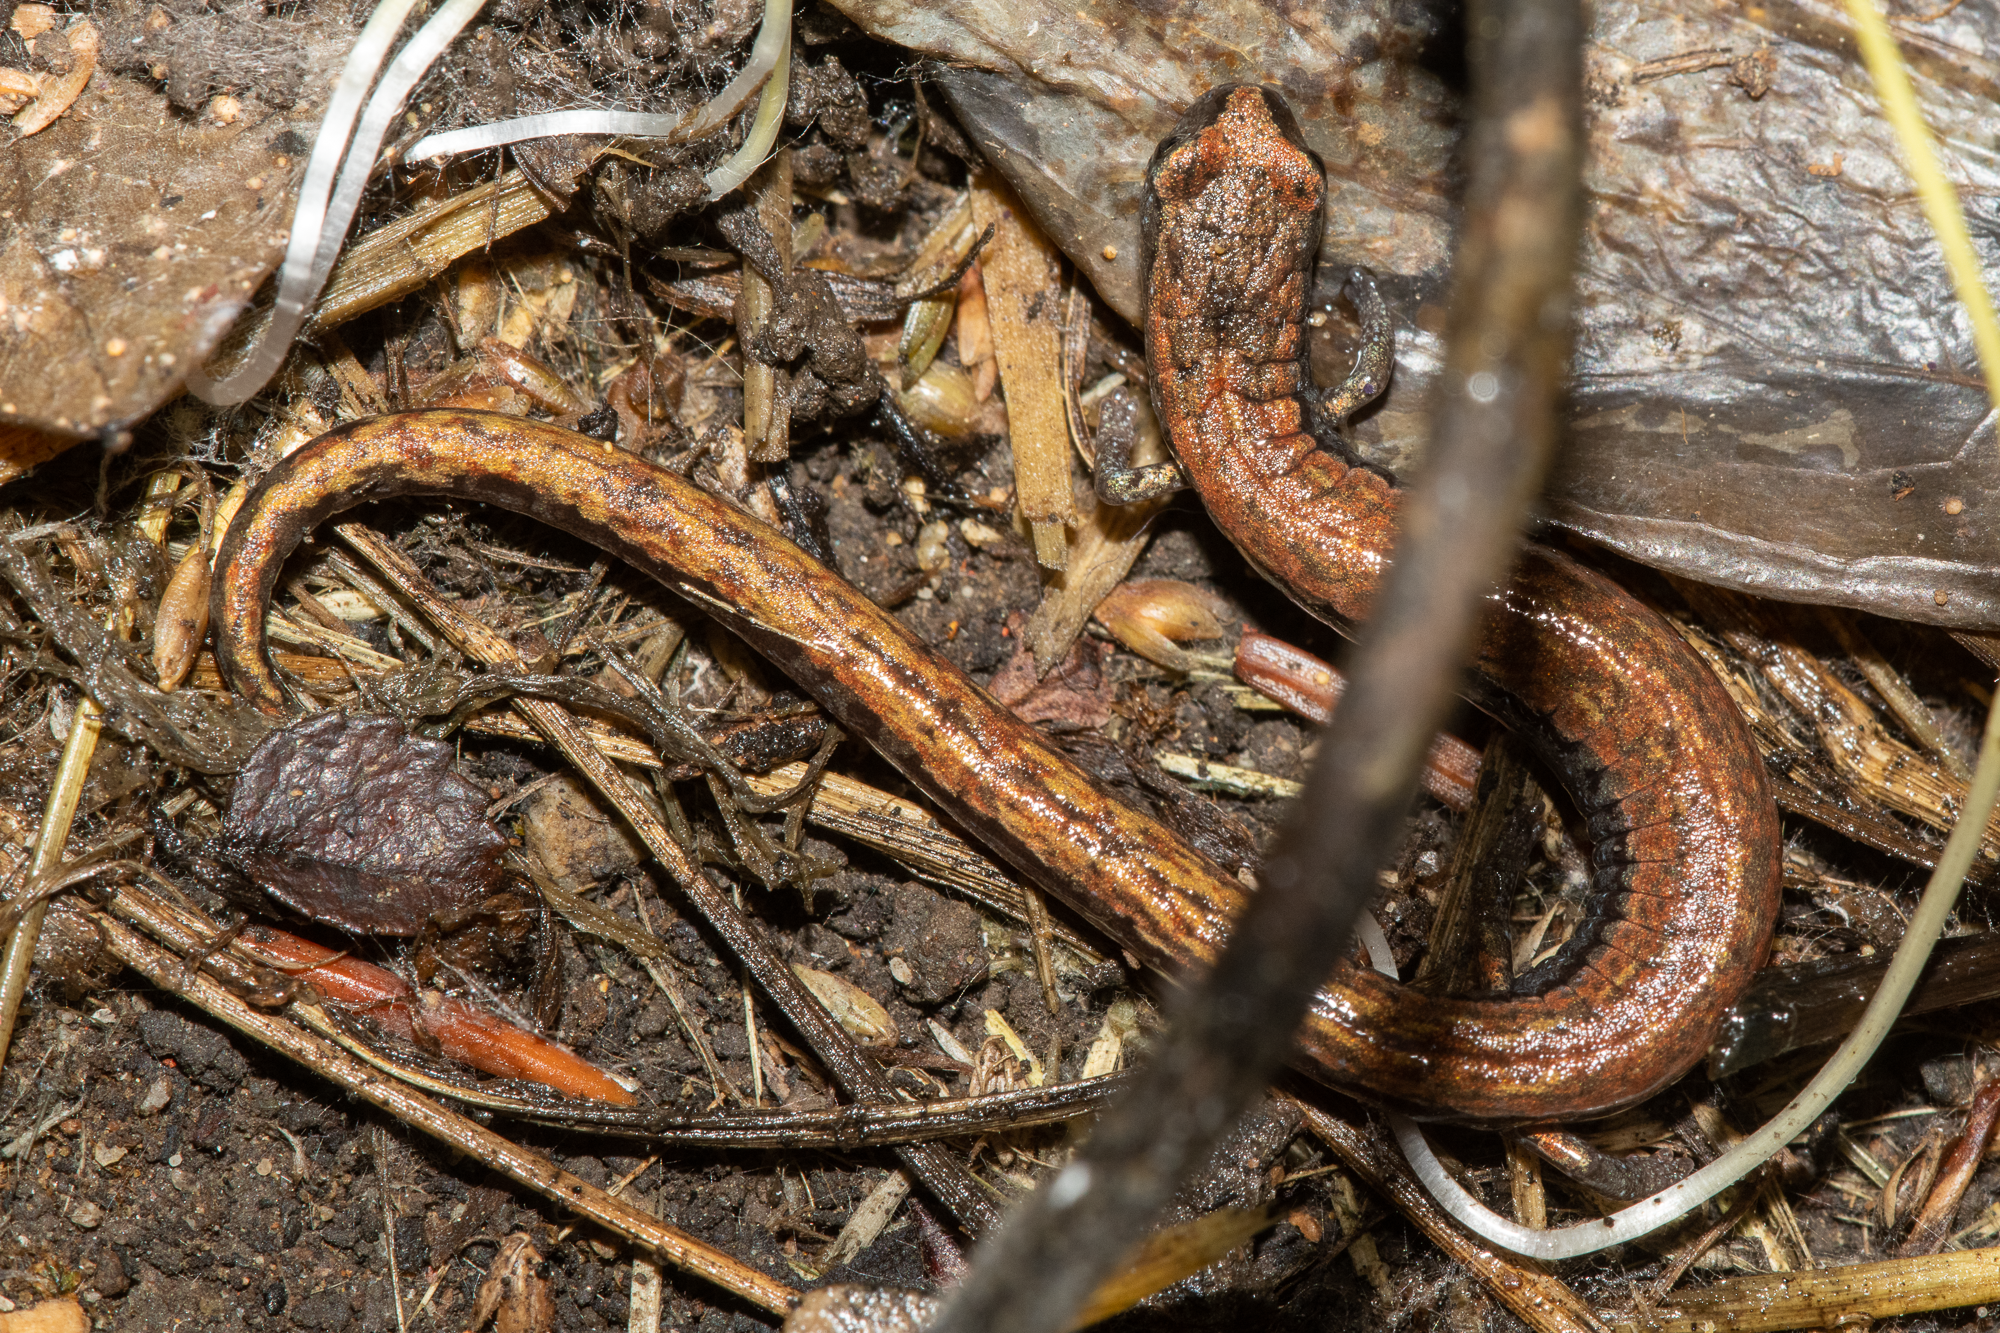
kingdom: Animalia
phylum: Chordata
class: Amphibia
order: Caudata
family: Plethodontidae
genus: Batrachoseps
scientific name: Batrachoseps attenuatus
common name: California slender salamander
